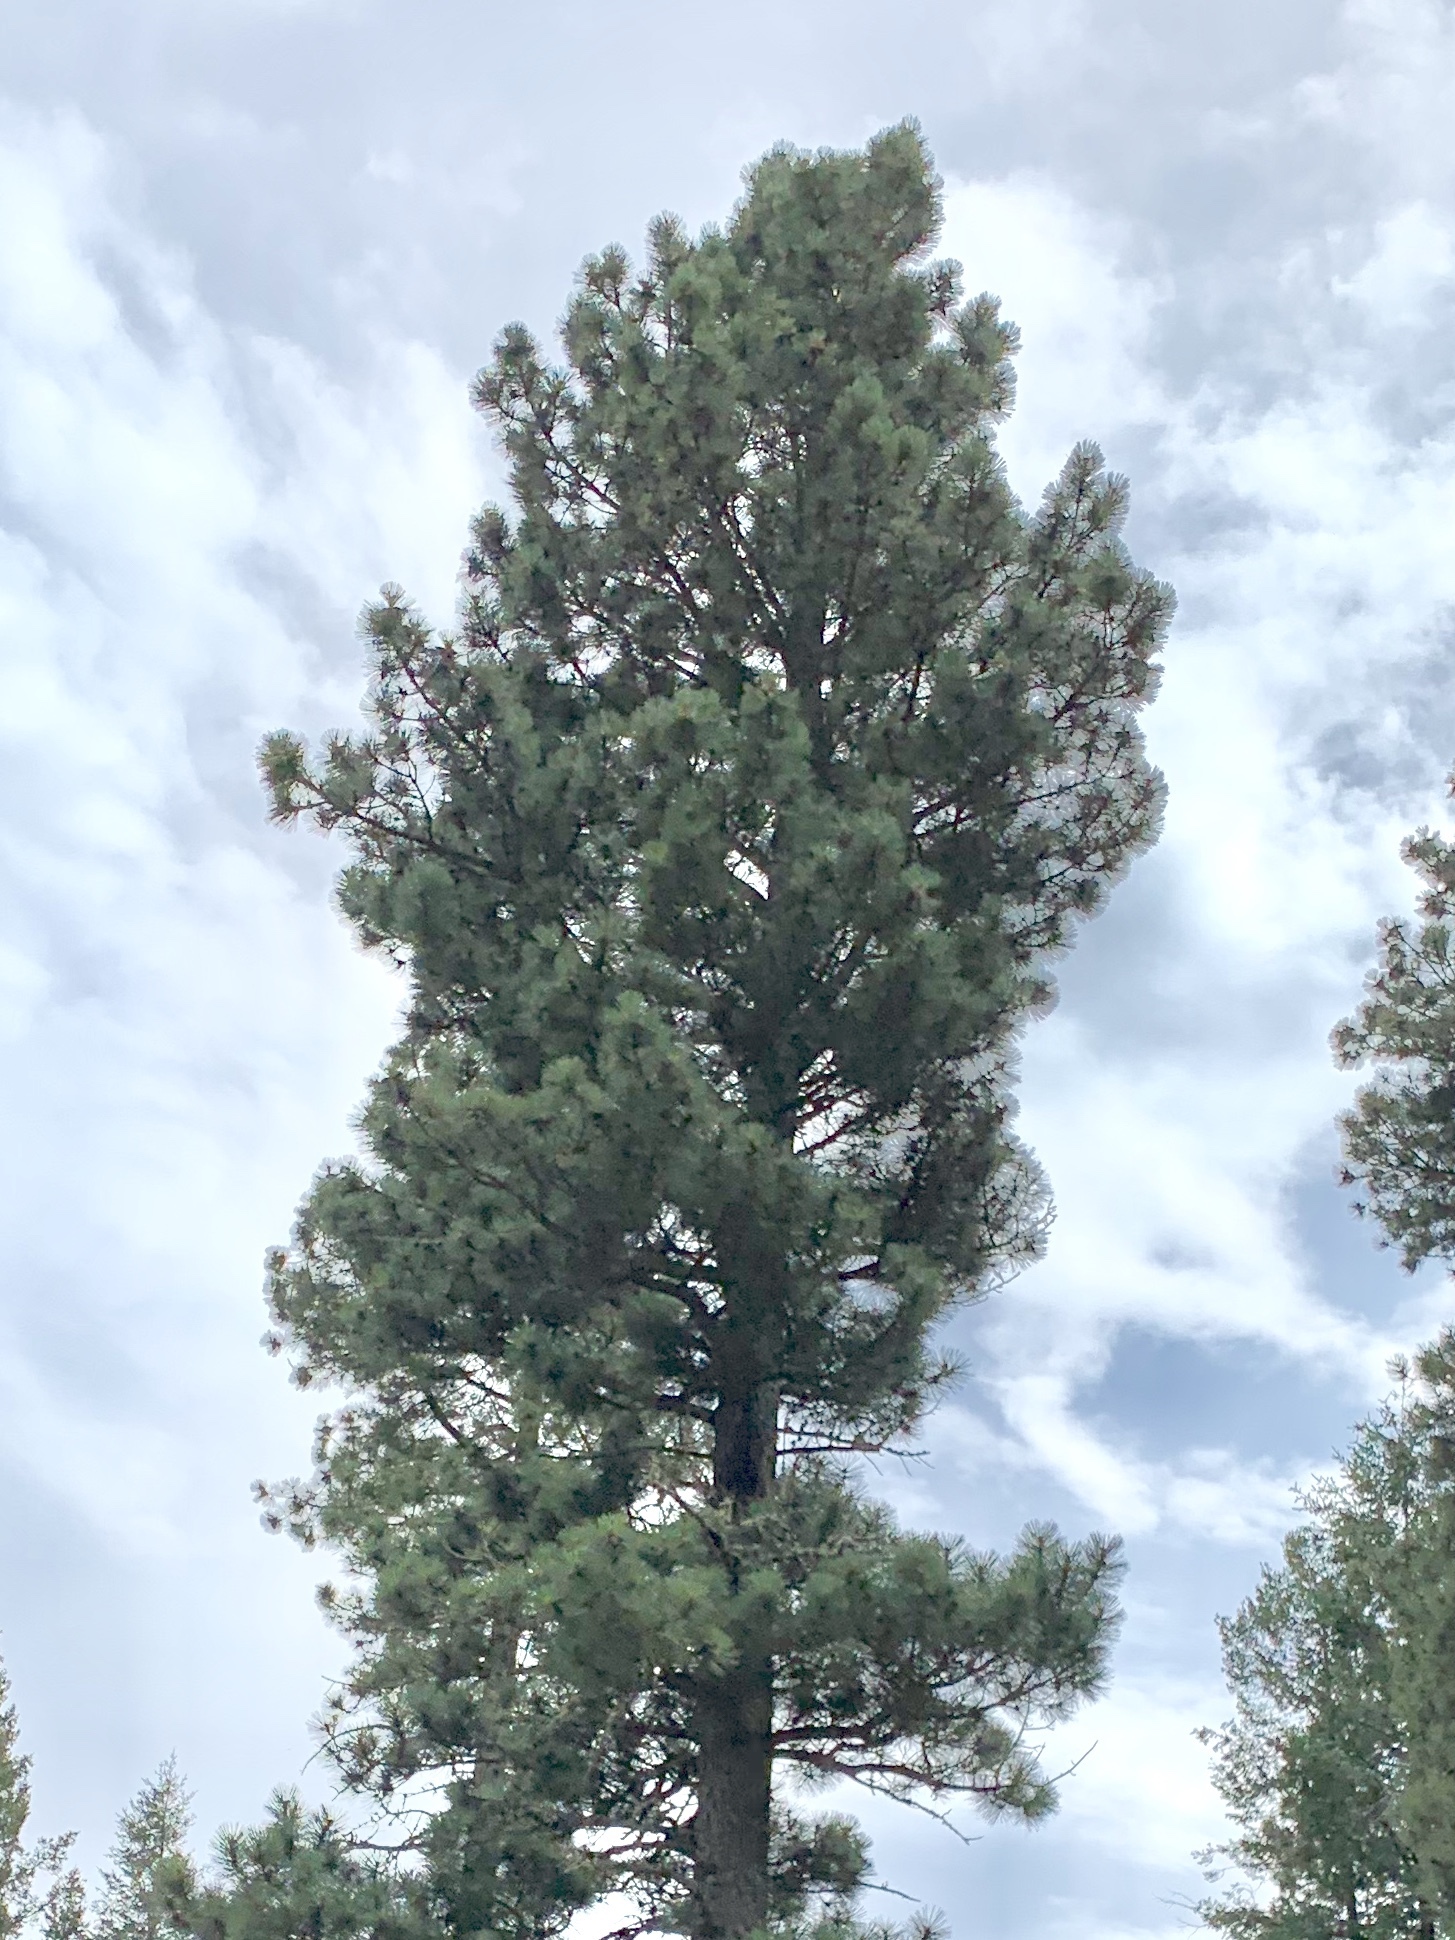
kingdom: Plantae
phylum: Tracheophyta
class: Pinopsida
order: Pinales
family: Pinaceae
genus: Pinus
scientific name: Pinus ponderosa
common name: Western yellow-pine
